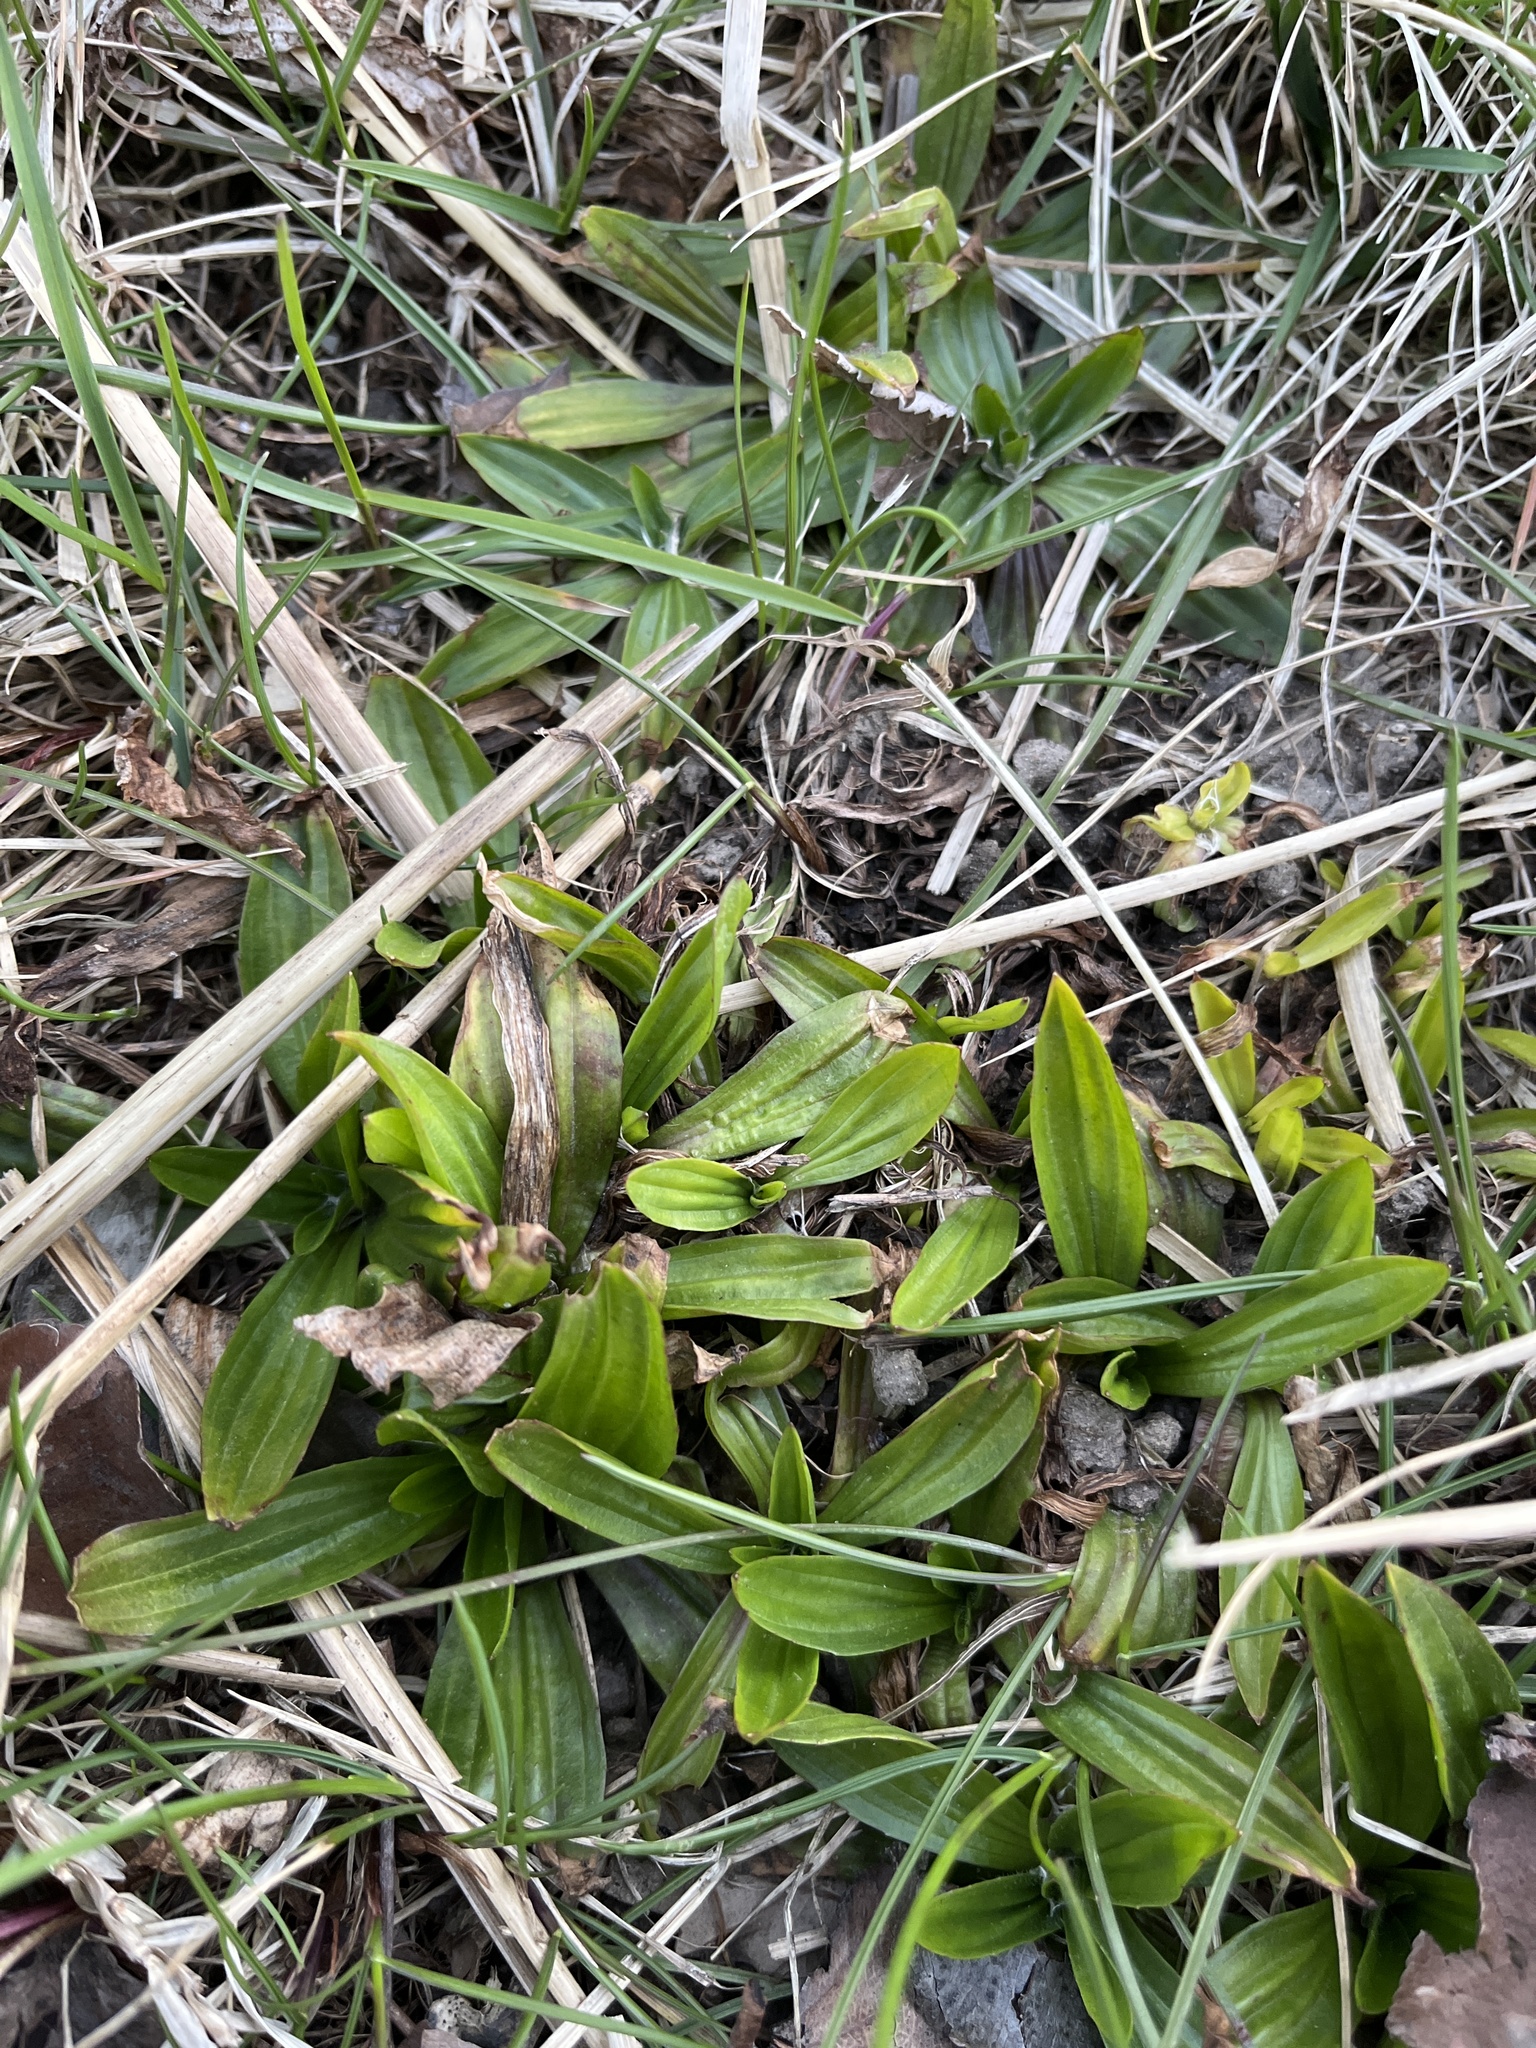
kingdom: Plantae
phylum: Tracheophyta
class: Magnoliopsida
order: Lamiales
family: Plantaginaceae
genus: Plantago
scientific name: Plantago lanceolata
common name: Ribwort plantain
